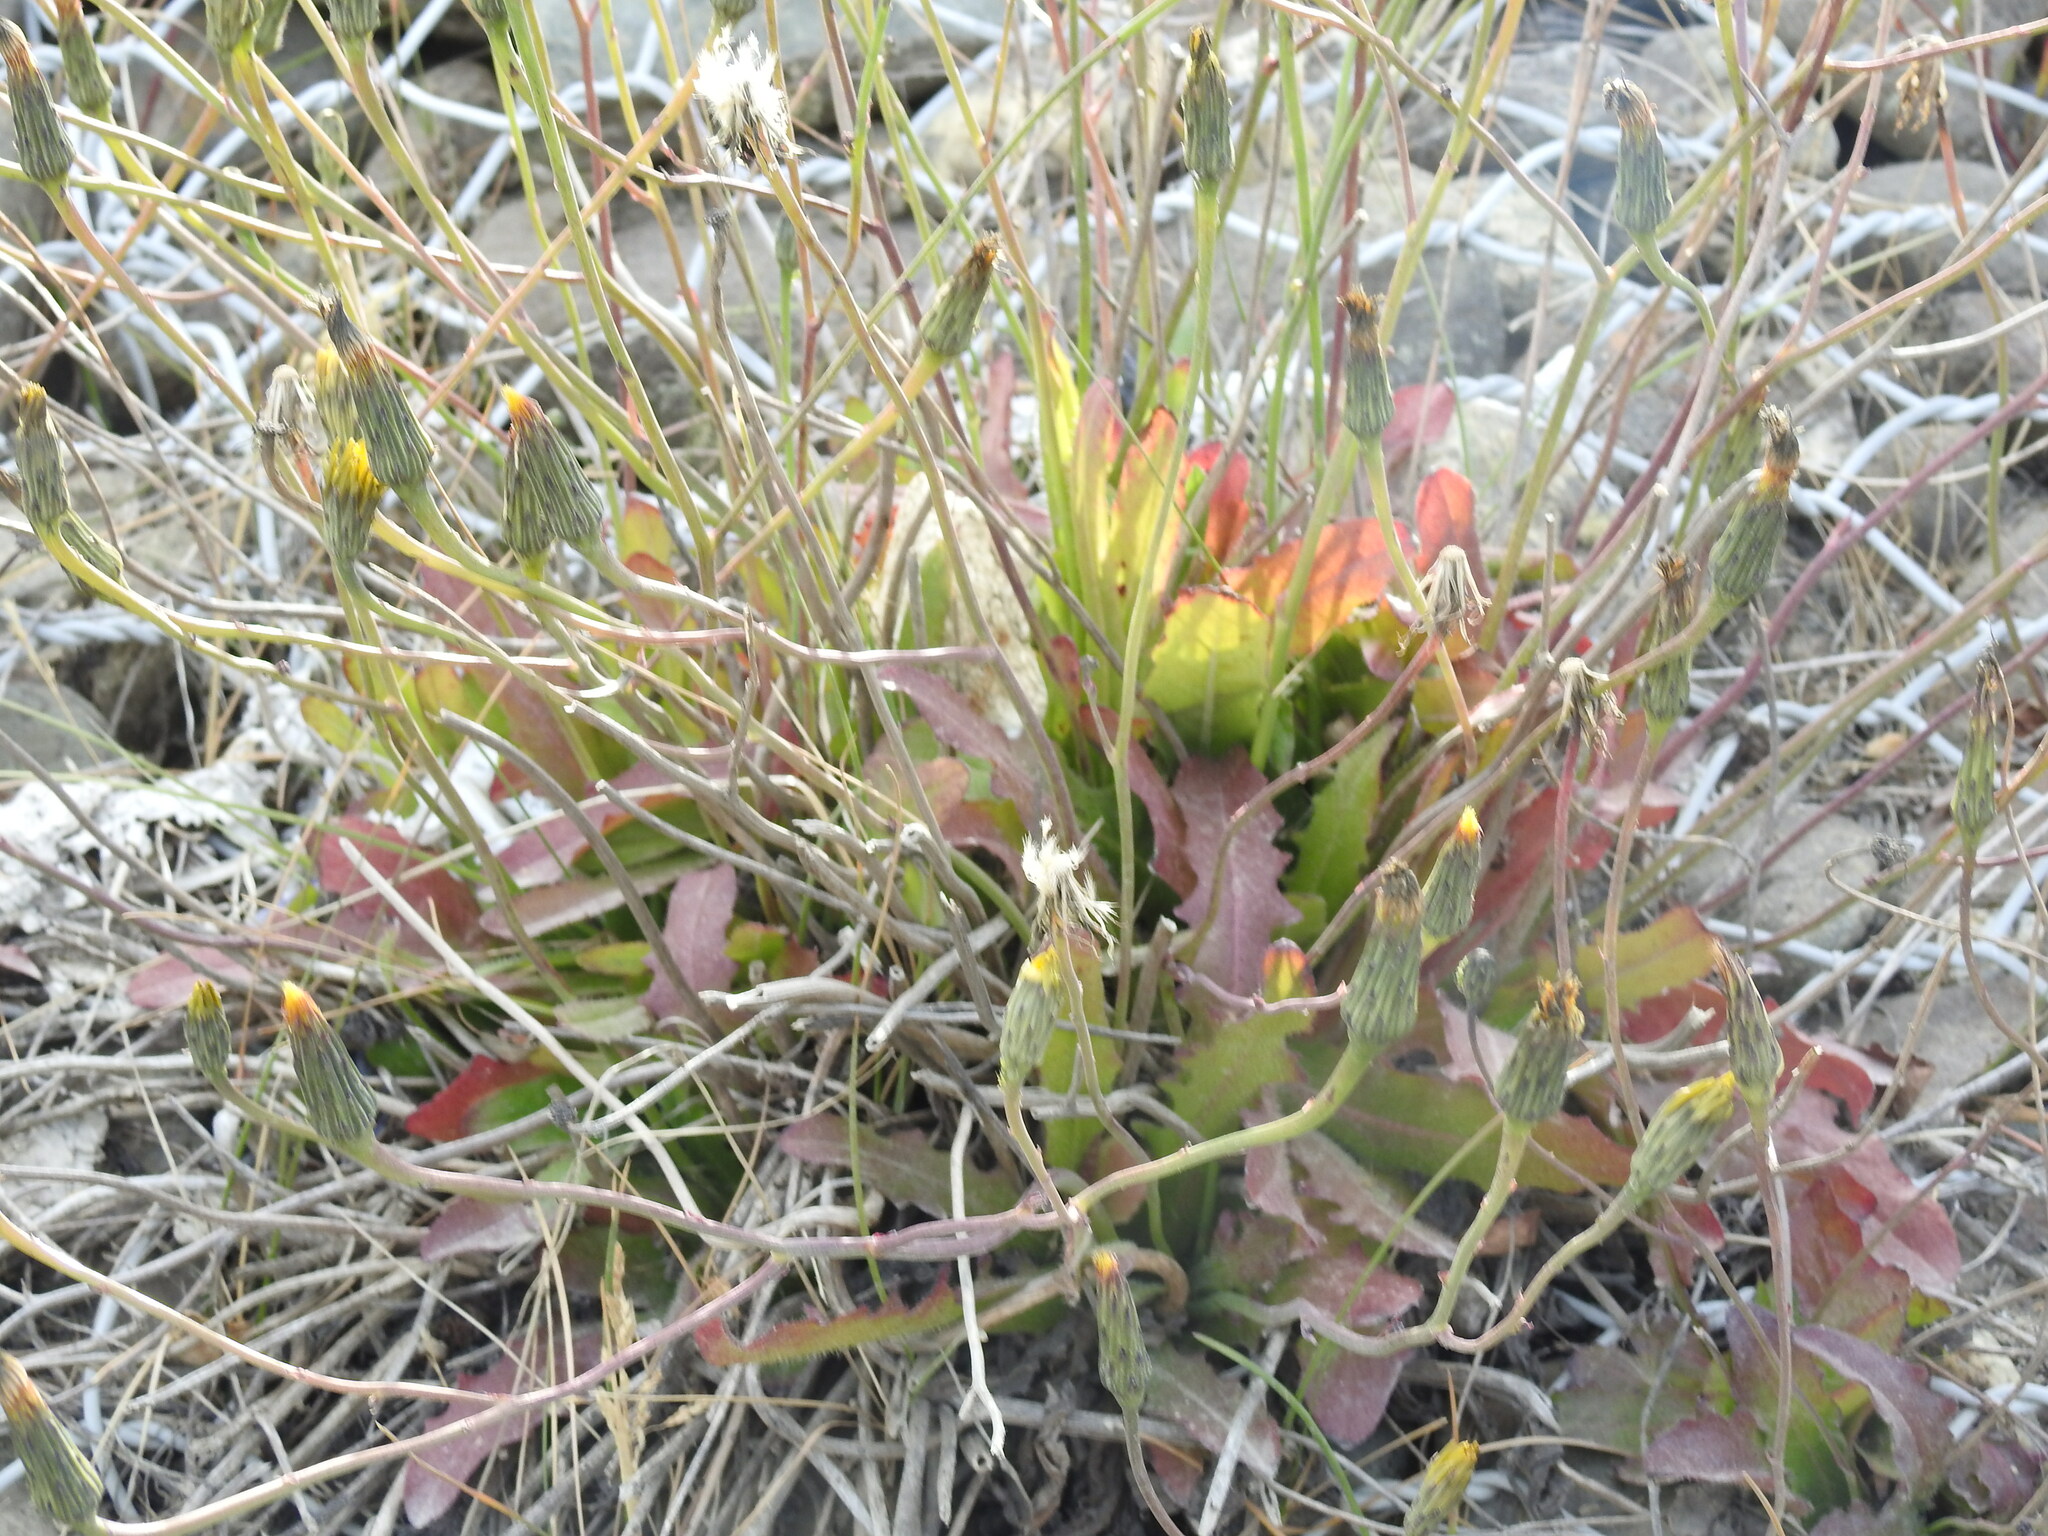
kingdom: Plantae
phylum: Tracheophyta
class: Magnoliopsida
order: Asterales
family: Asteraceae
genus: Hypochaeris
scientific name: Hypochaeris radicata
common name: Flatweed
